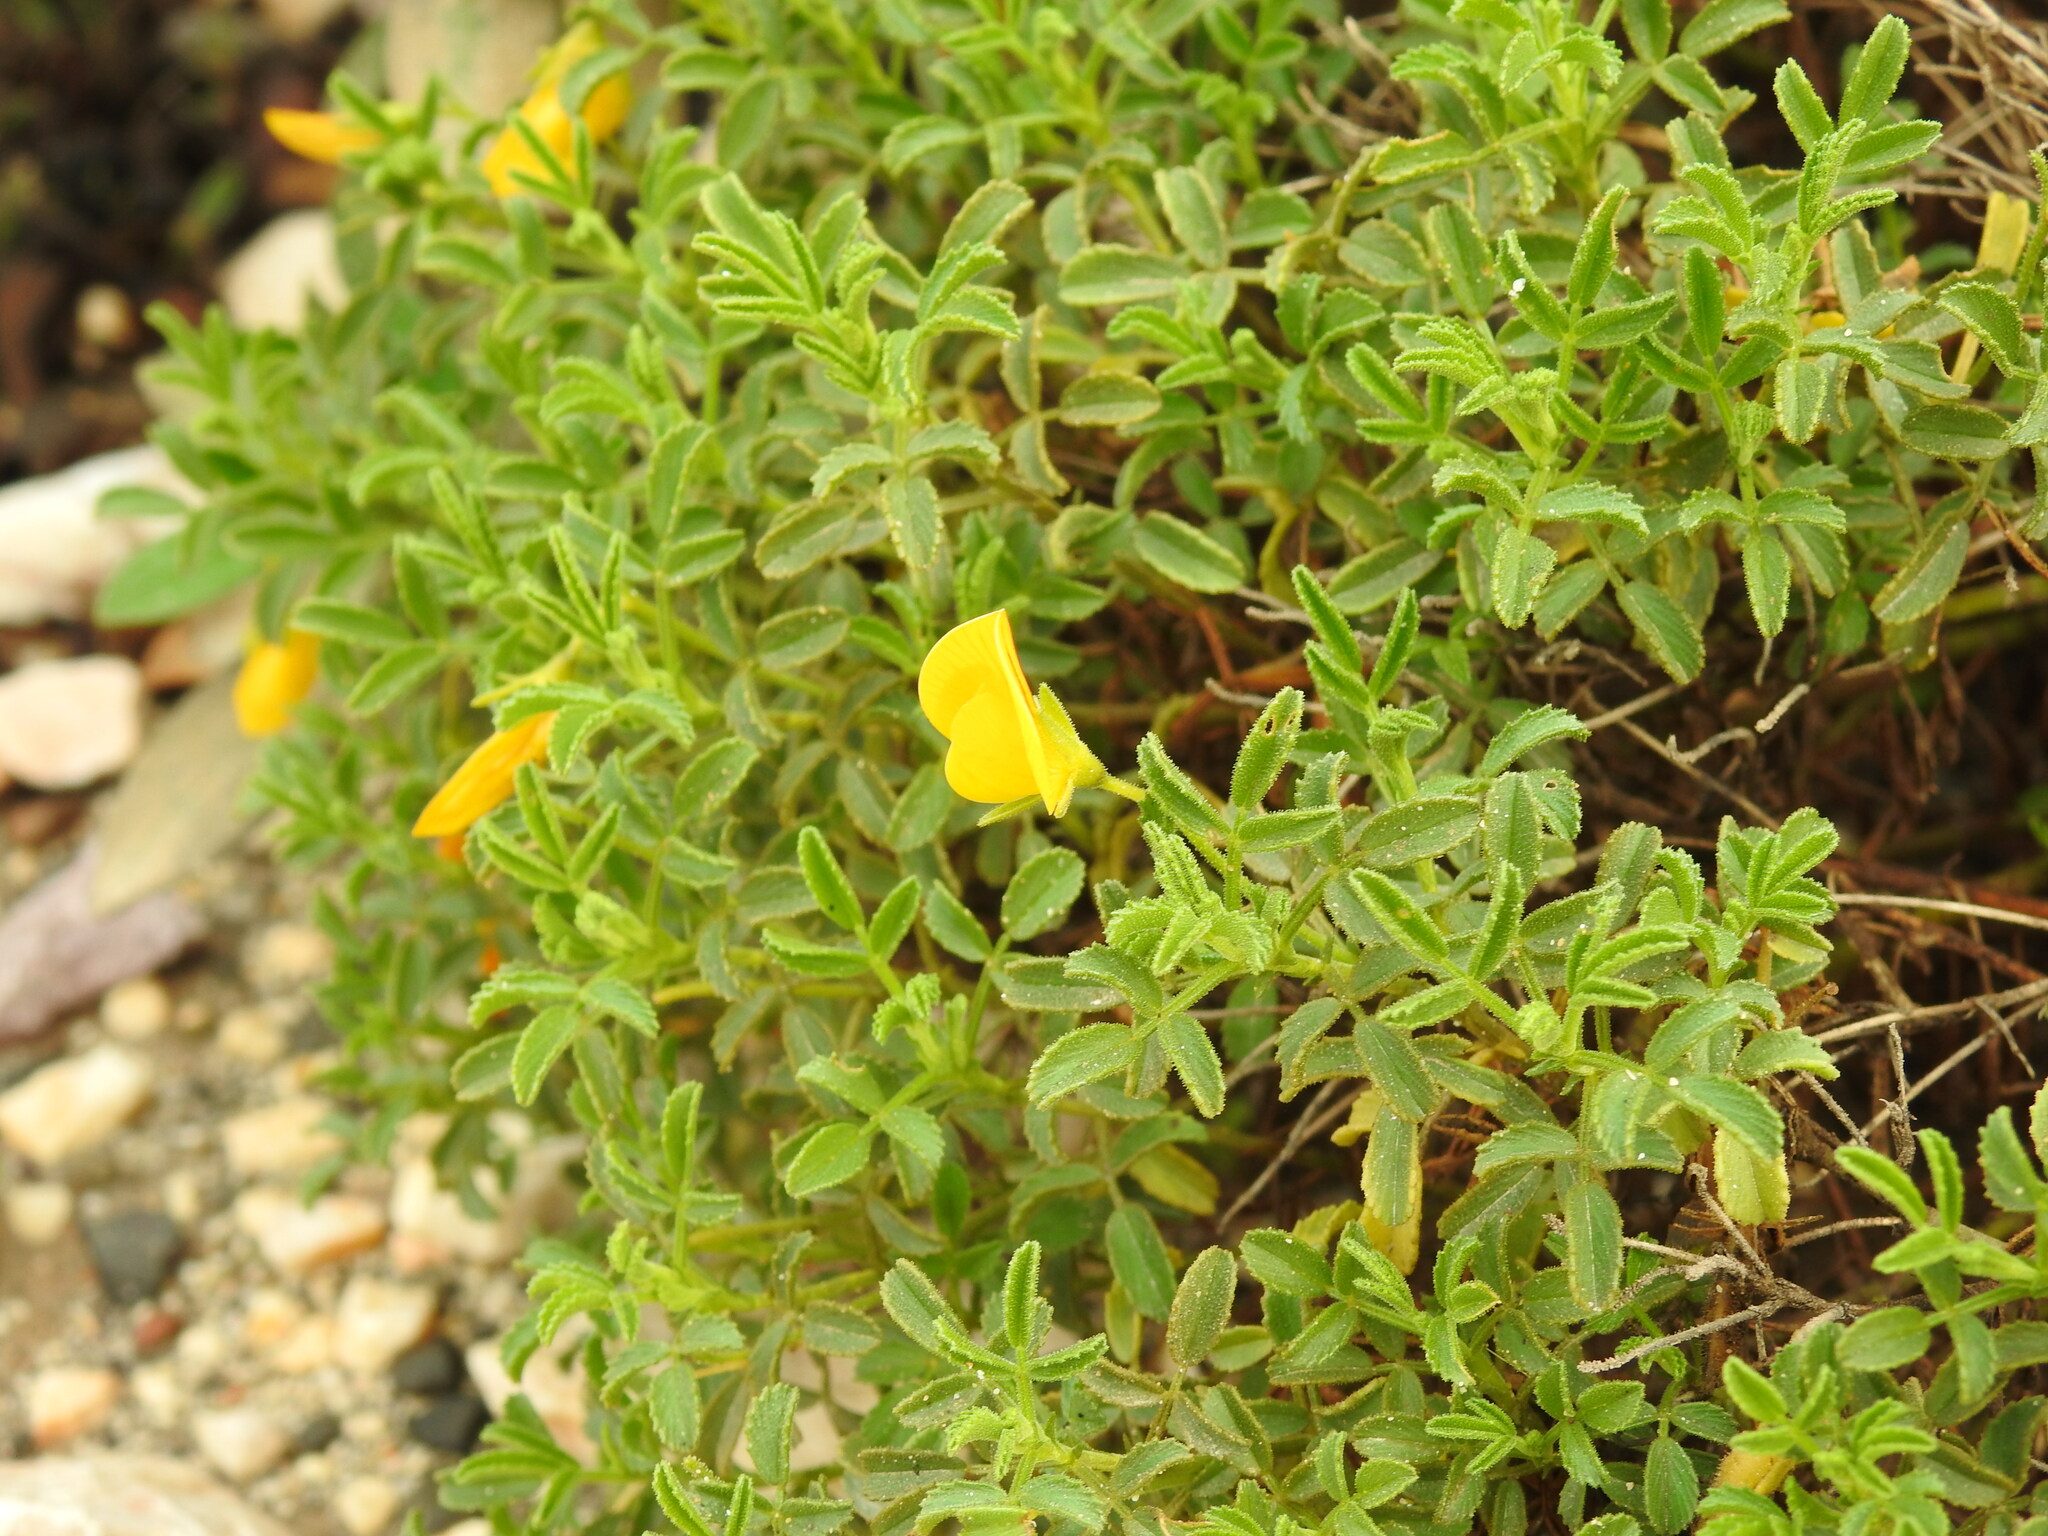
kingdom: Plantae
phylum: Tracheophyta
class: Magnoliopsida
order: Fabales
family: Fabaceae
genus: Ononis
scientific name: Ononis ramosissima
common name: Bush restharrow
